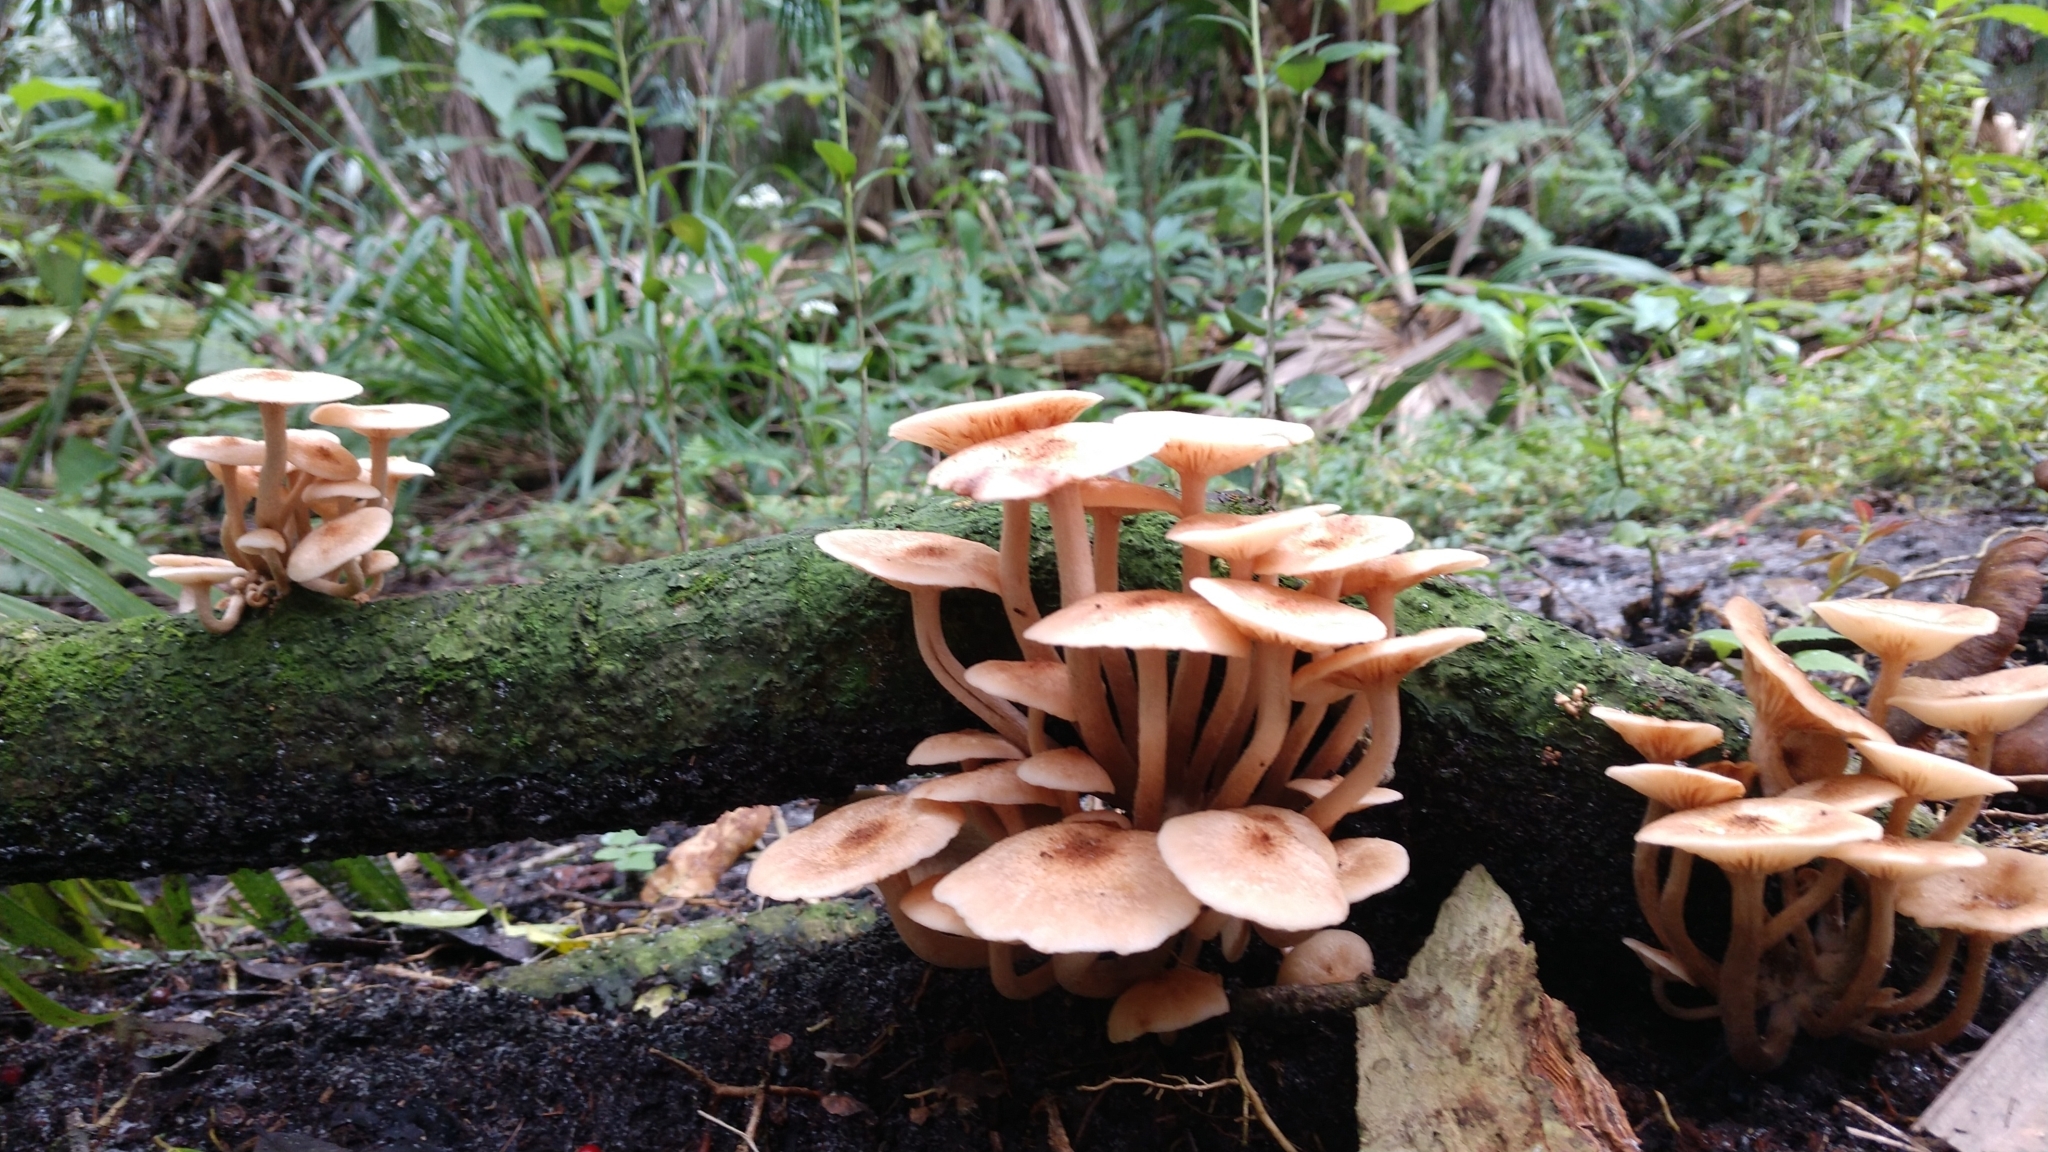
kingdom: Fungi
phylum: Basidiomycota
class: Agaricomycetes
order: Agaricales
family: Physalacriaceae
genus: Desarmillaria
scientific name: Desarmillaria caespitosa
